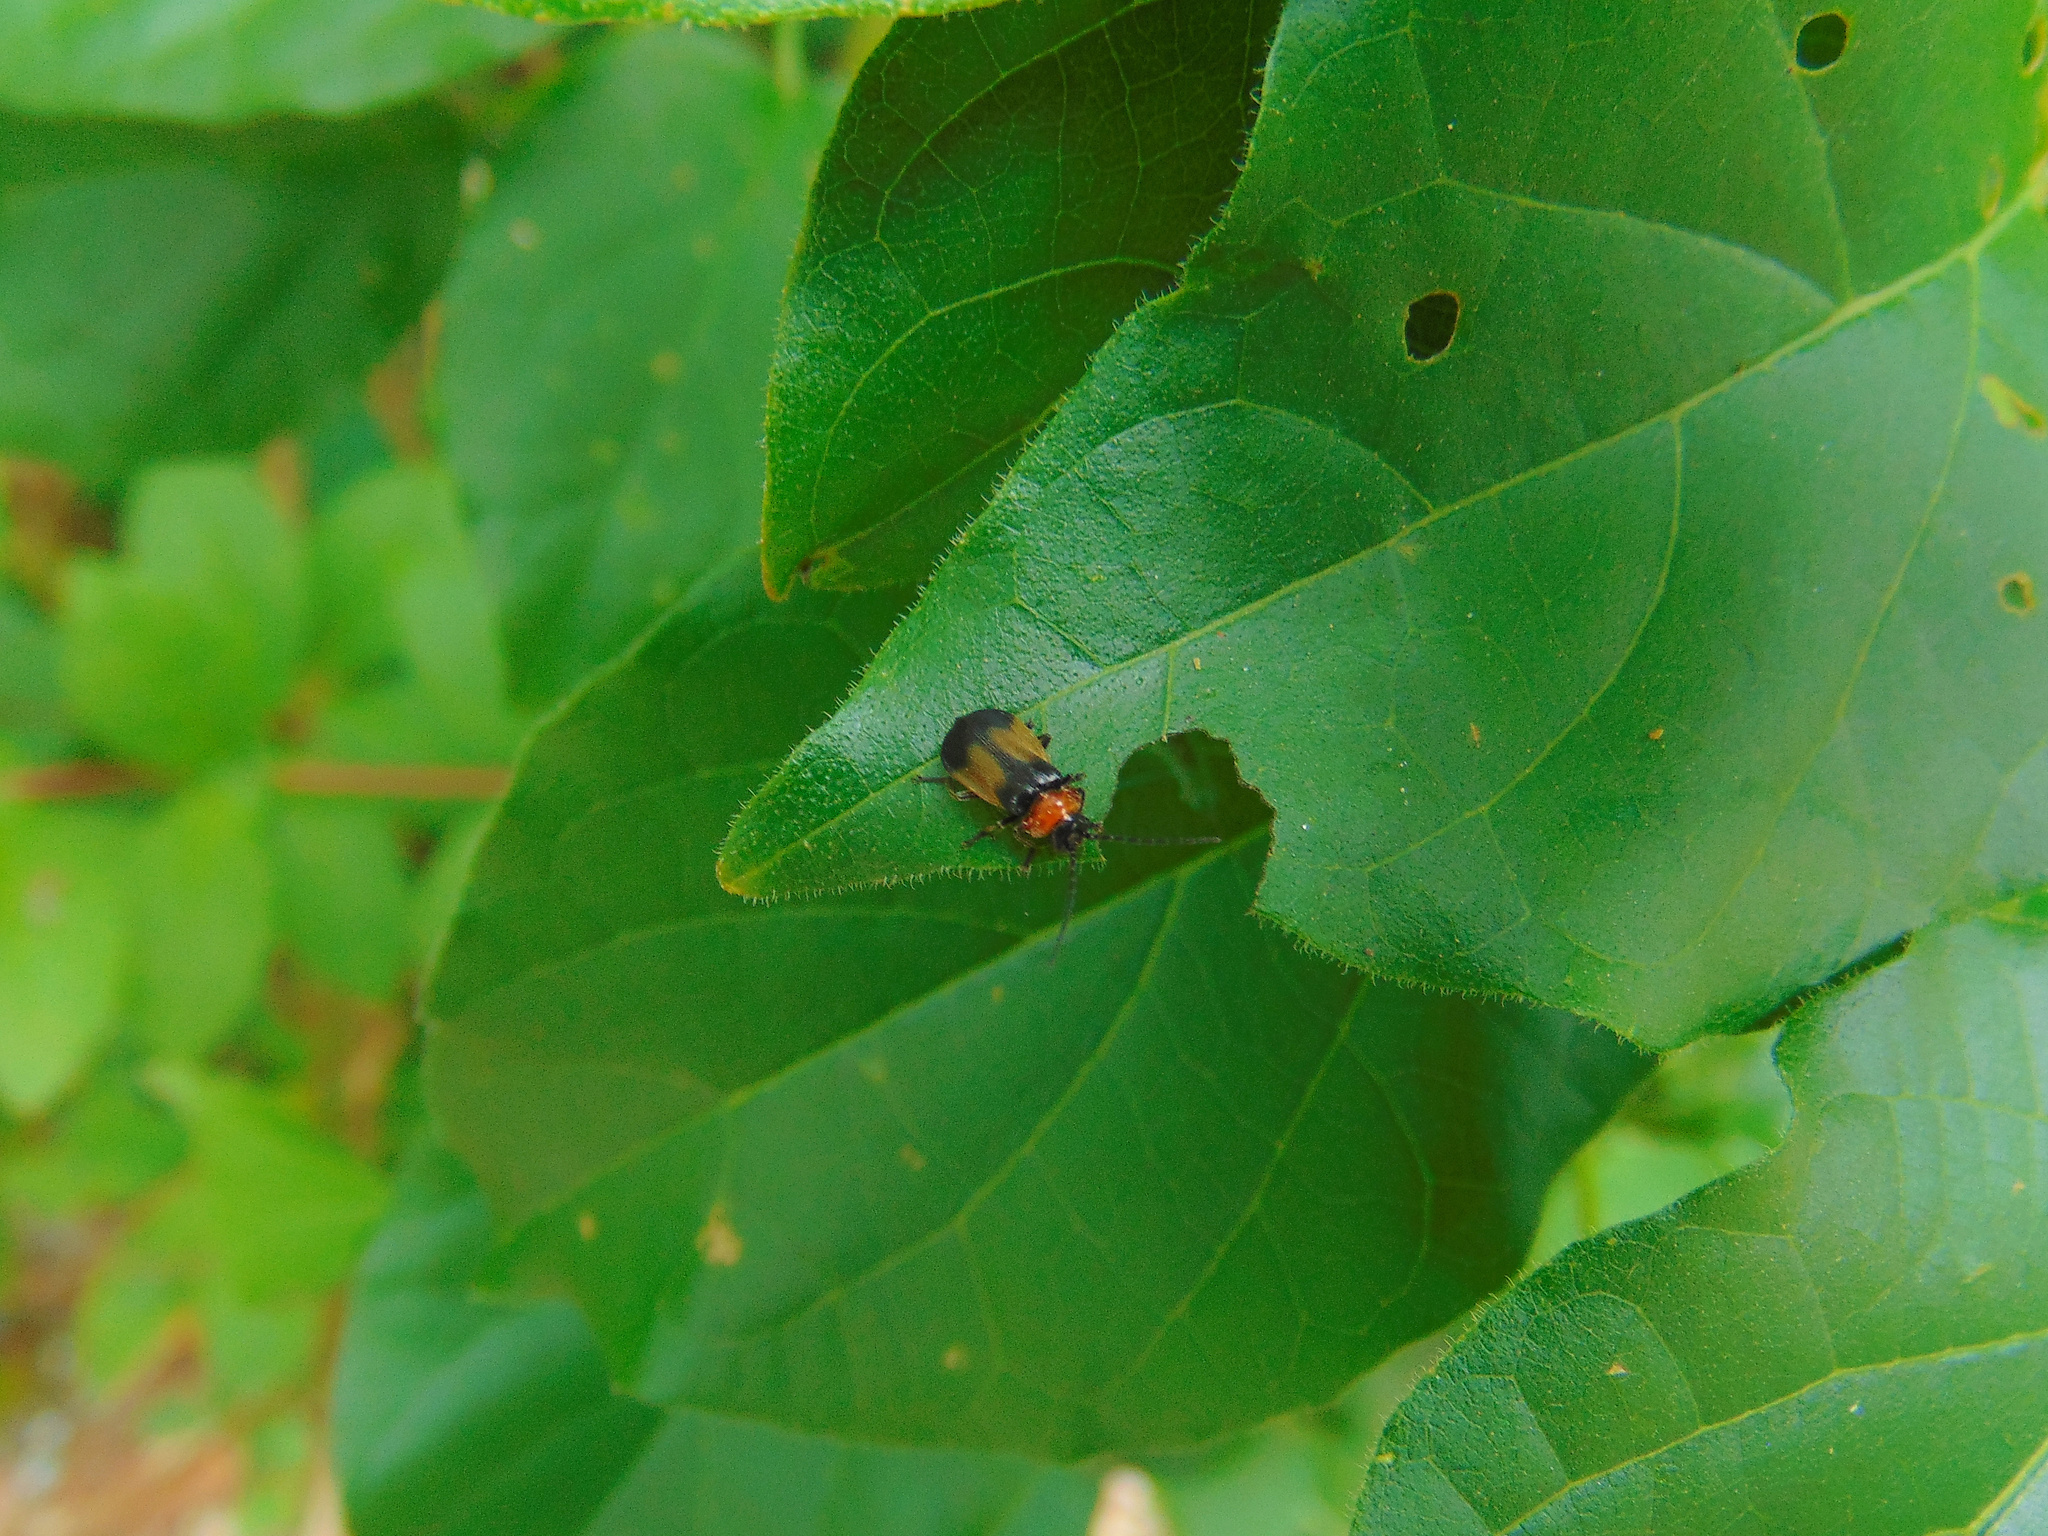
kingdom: Animalia
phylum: Arthropoda
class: Insecta
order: Coleoptera
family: Cantharidae
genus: Silis
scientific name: Silis
